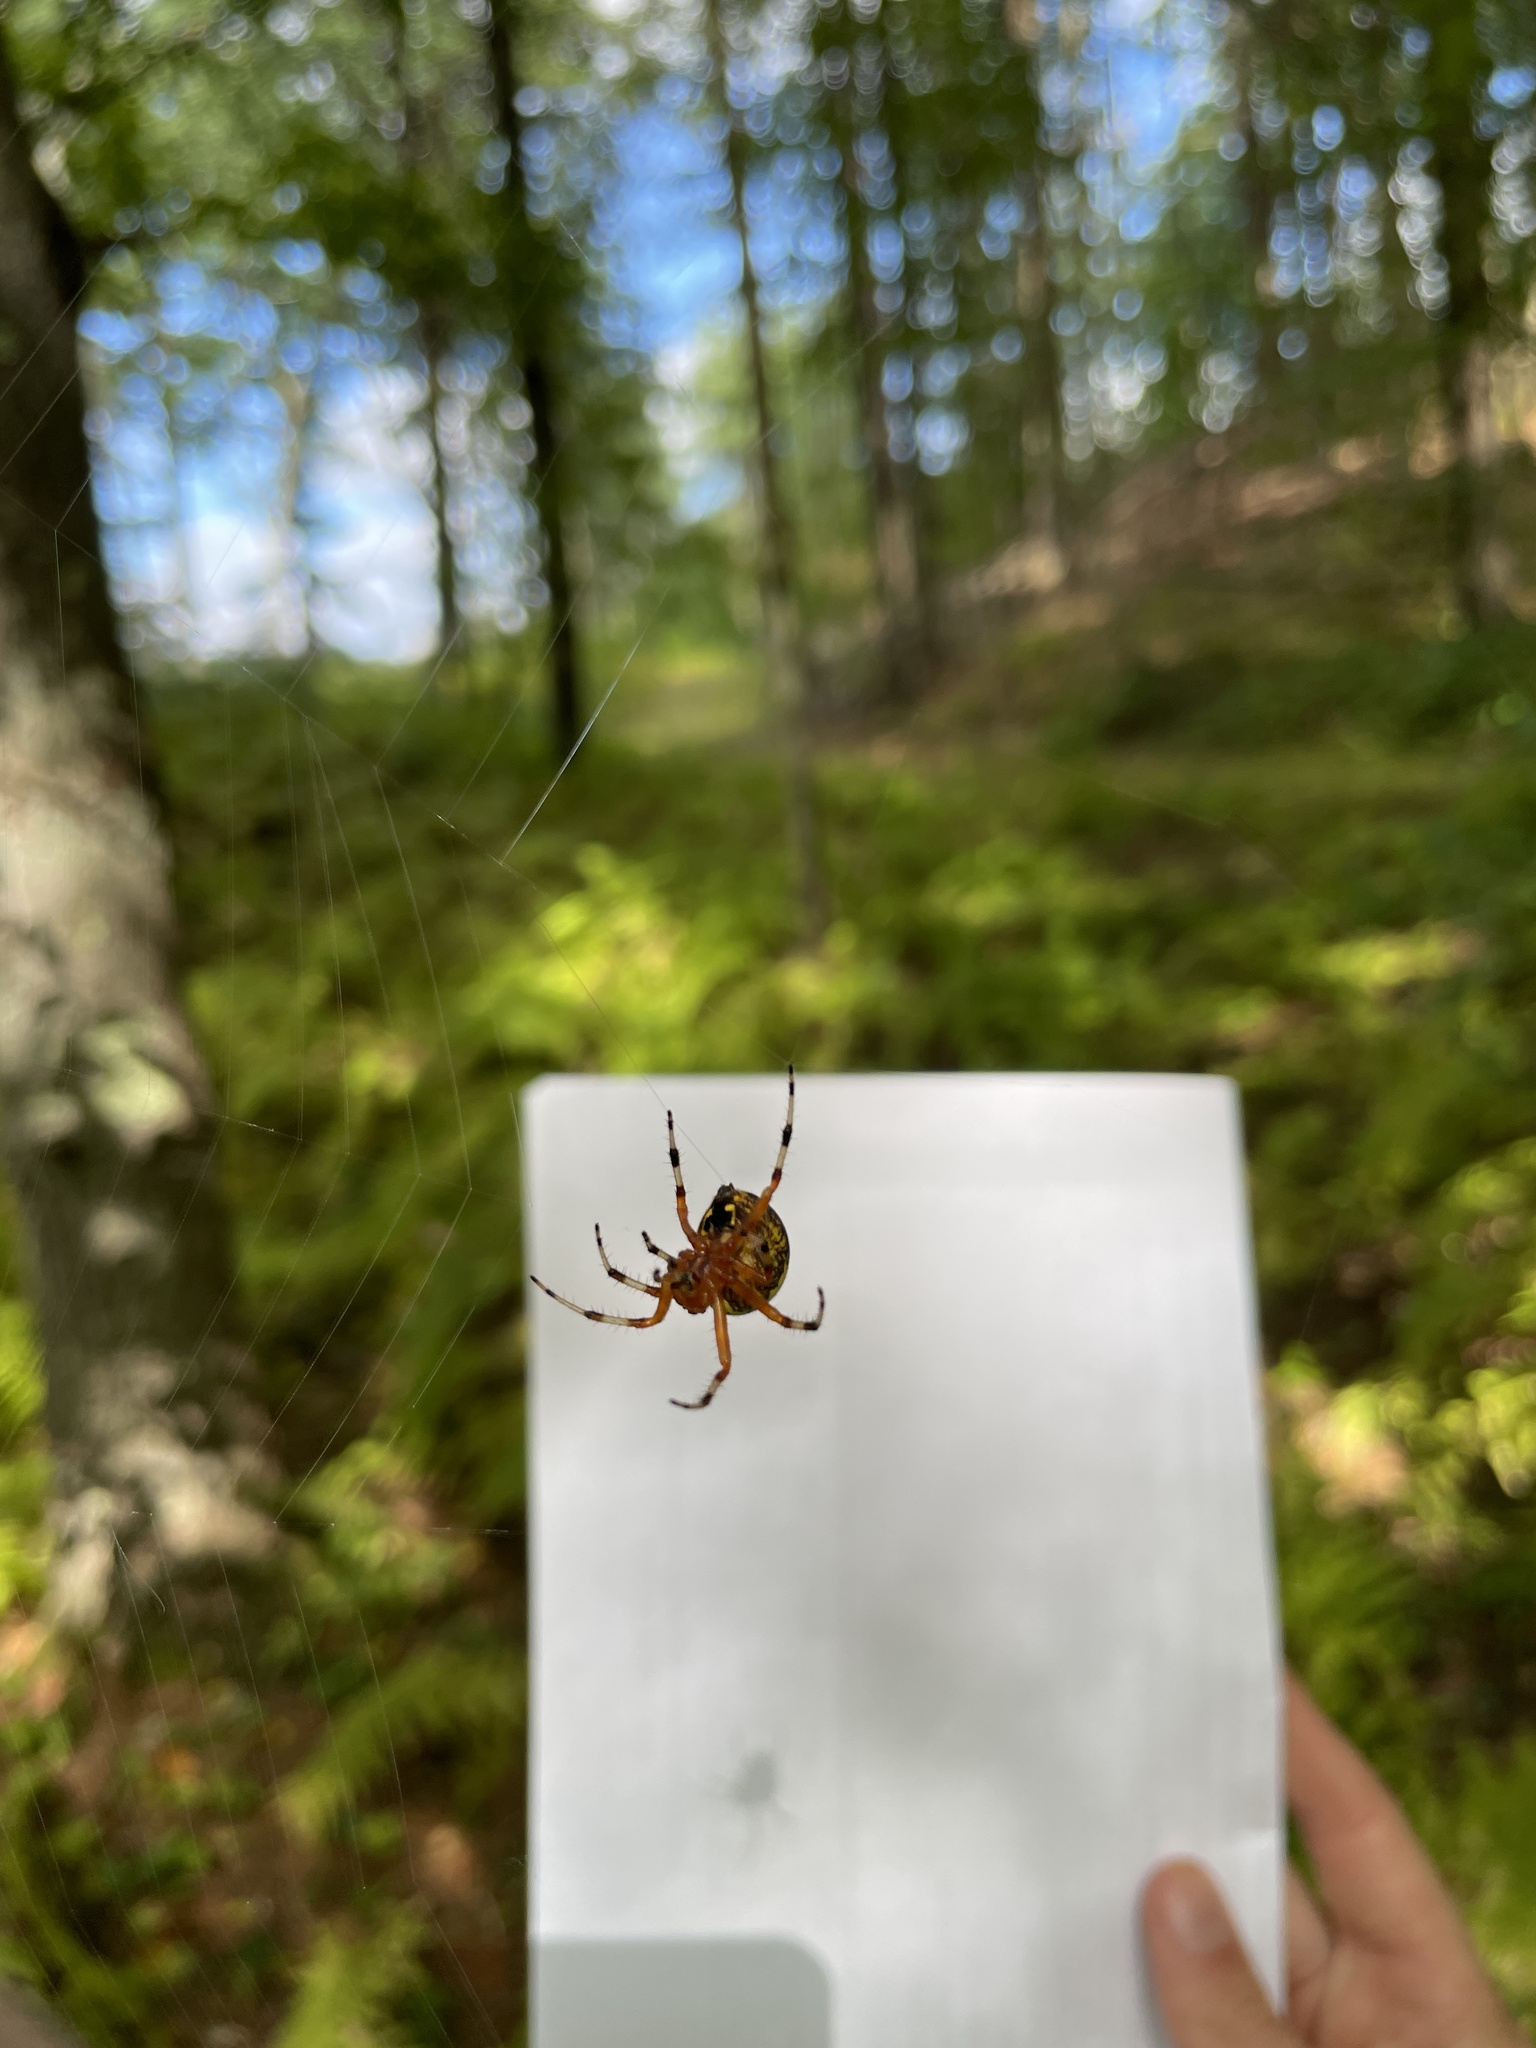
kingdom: Animalia
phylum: Arthropoda
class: Arachnida
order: Araneae
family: Araneidae
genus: Araneus
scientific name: Araneus marmoreus
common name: Marbled orbweaver
